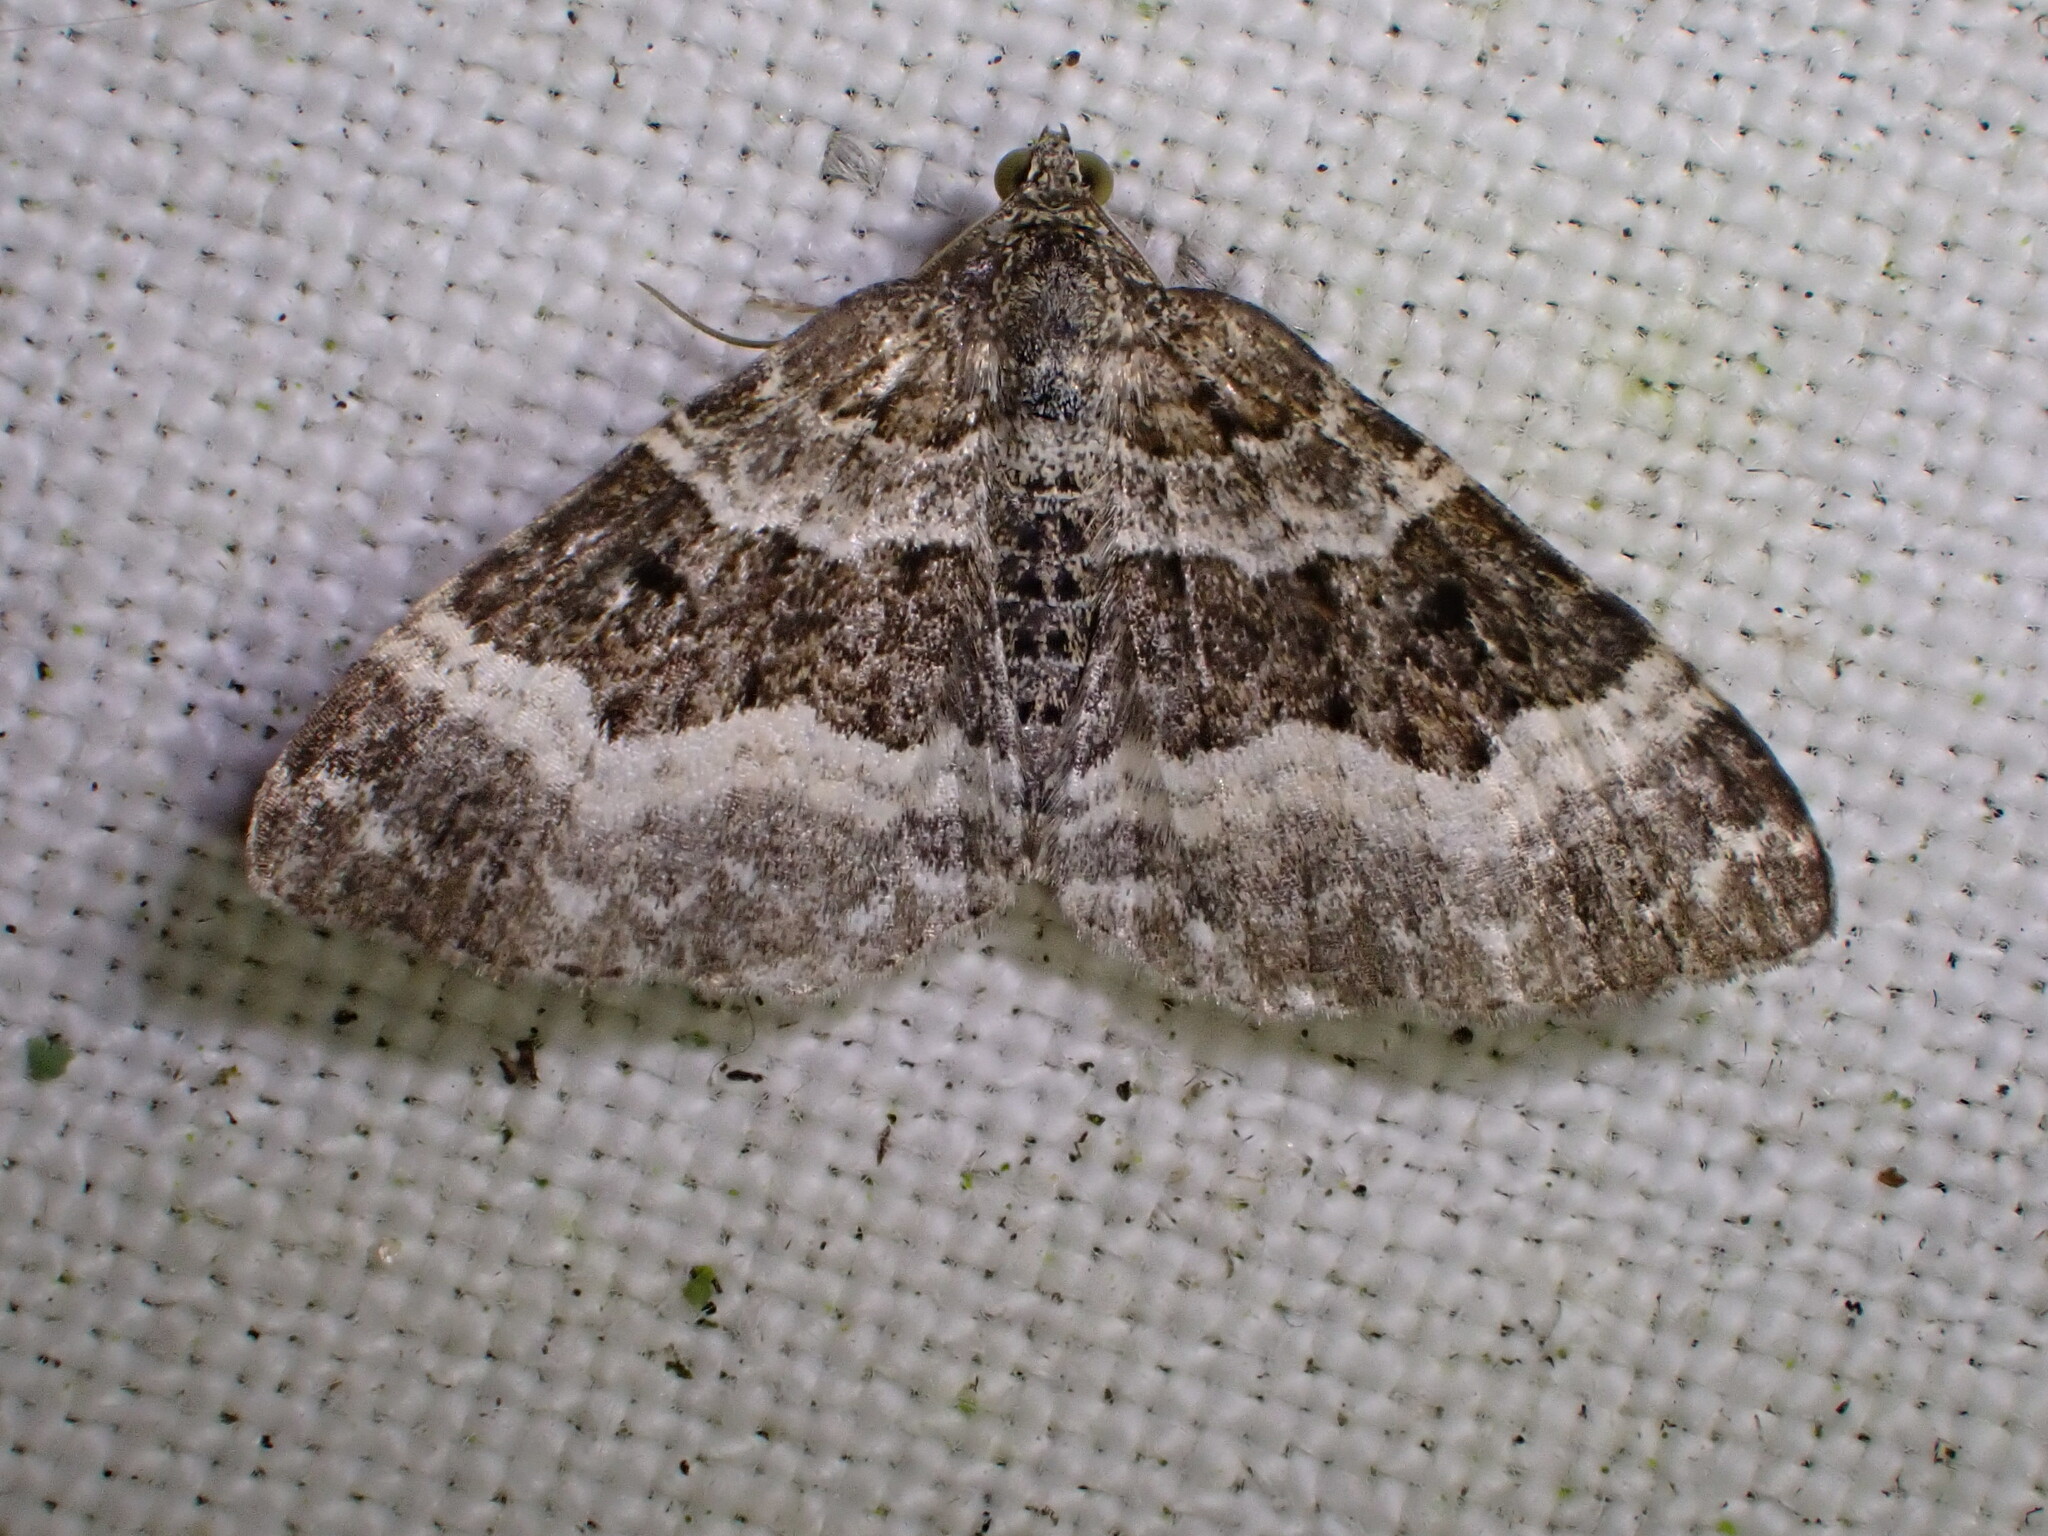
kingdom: Animalia
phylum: Arthropoda
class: Insecta
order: Lepidoptera
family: Geometridae
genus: Epirrhoe
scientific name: Epirrhoe alternata
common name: Common carpet
